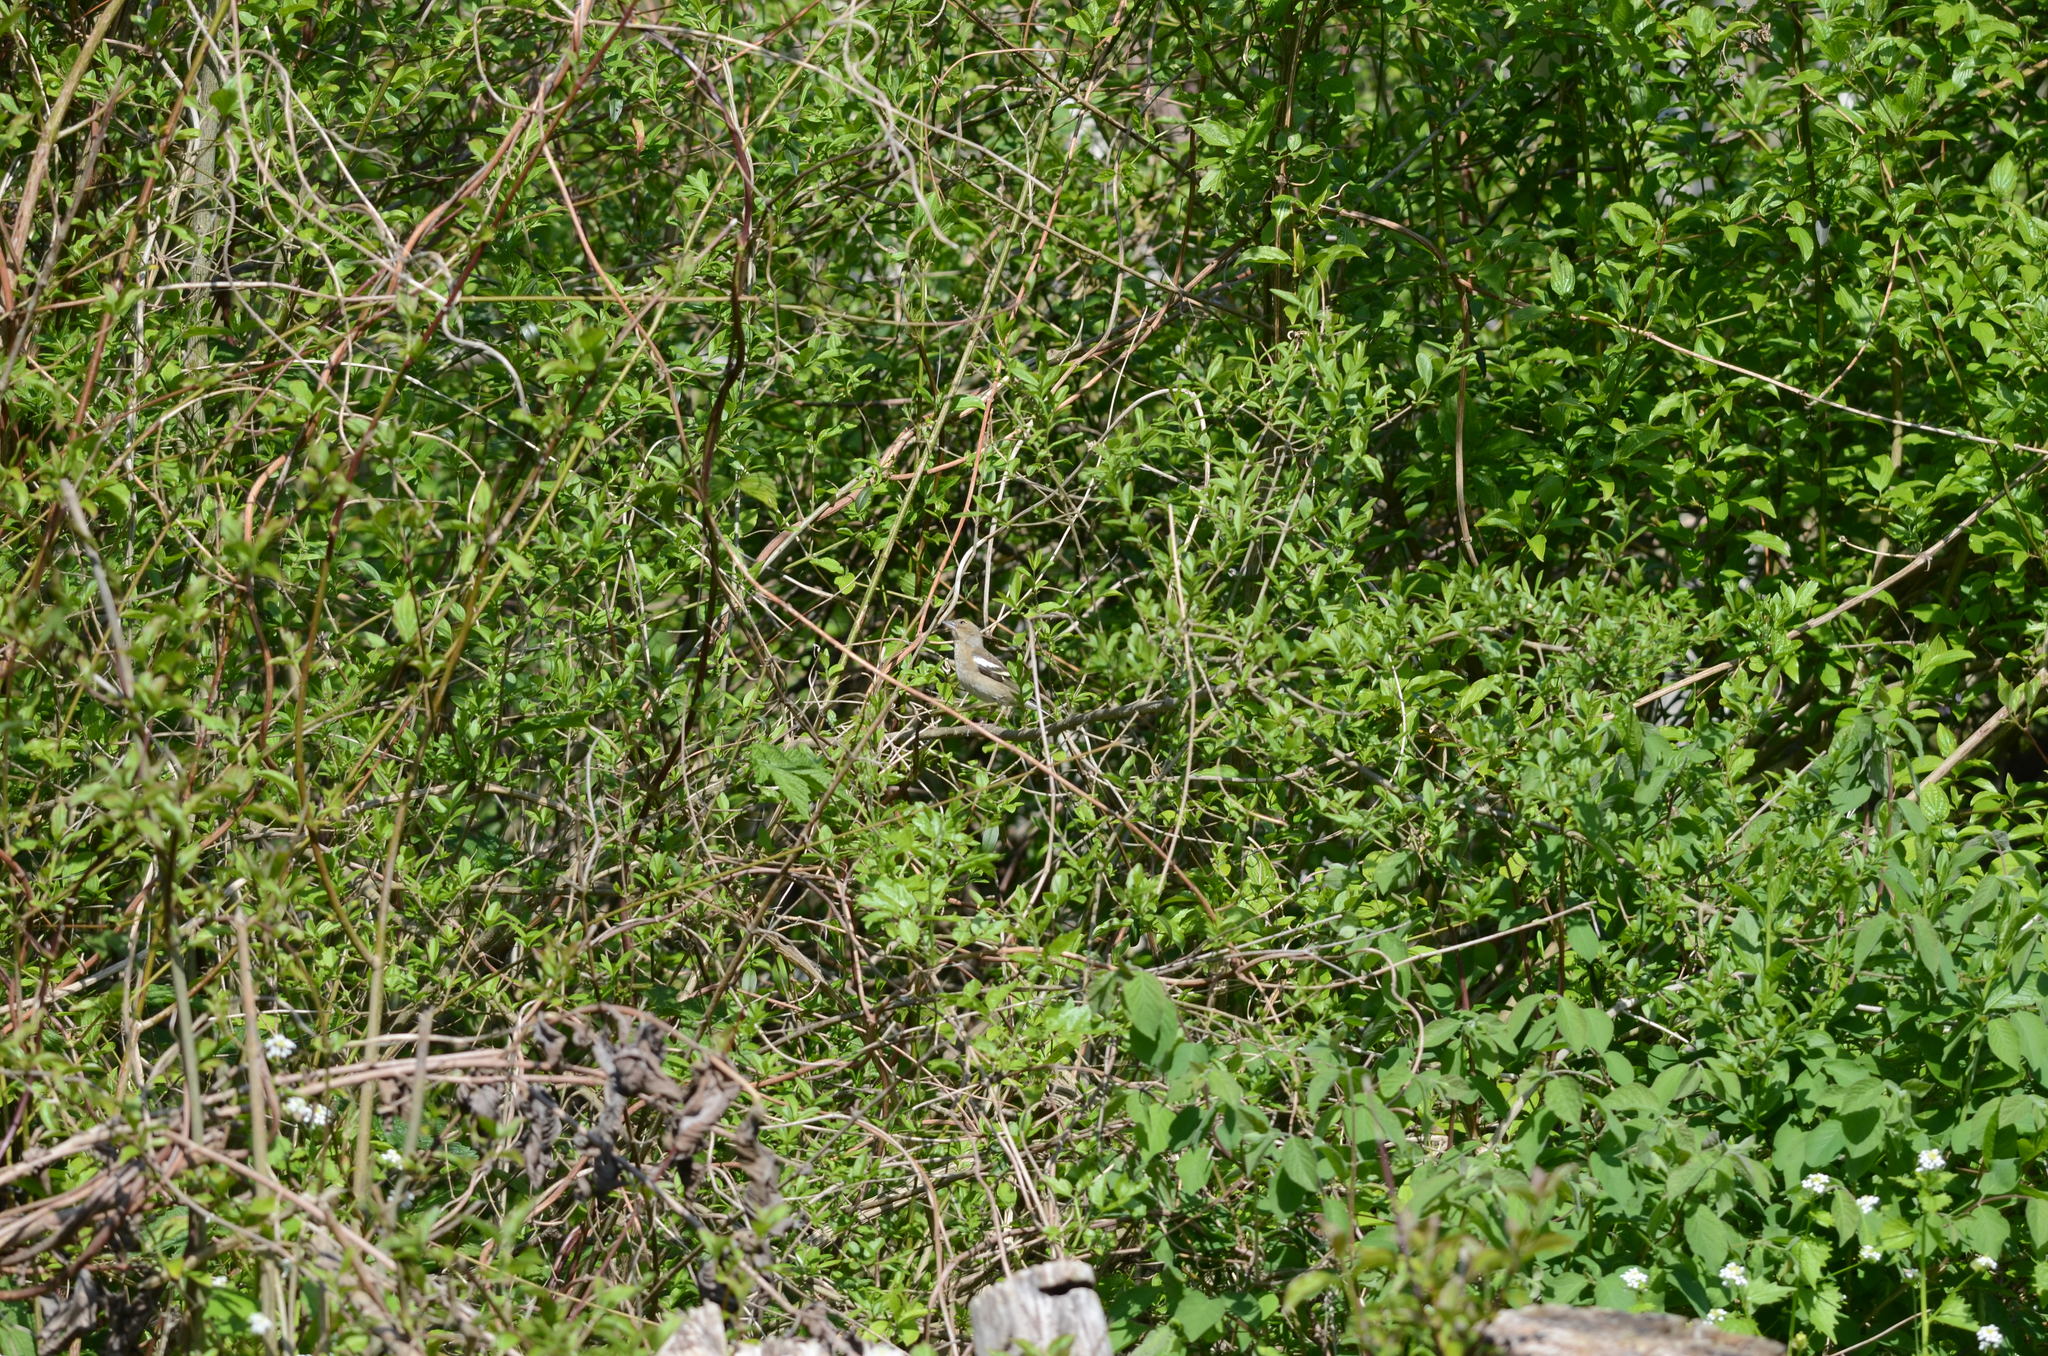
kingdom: Animalia
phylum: Chordata
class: Aves
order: Passeriformes
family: Fringillidae
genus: Fringilla
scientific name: Fringilla coelebs
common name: Common chaffinch
